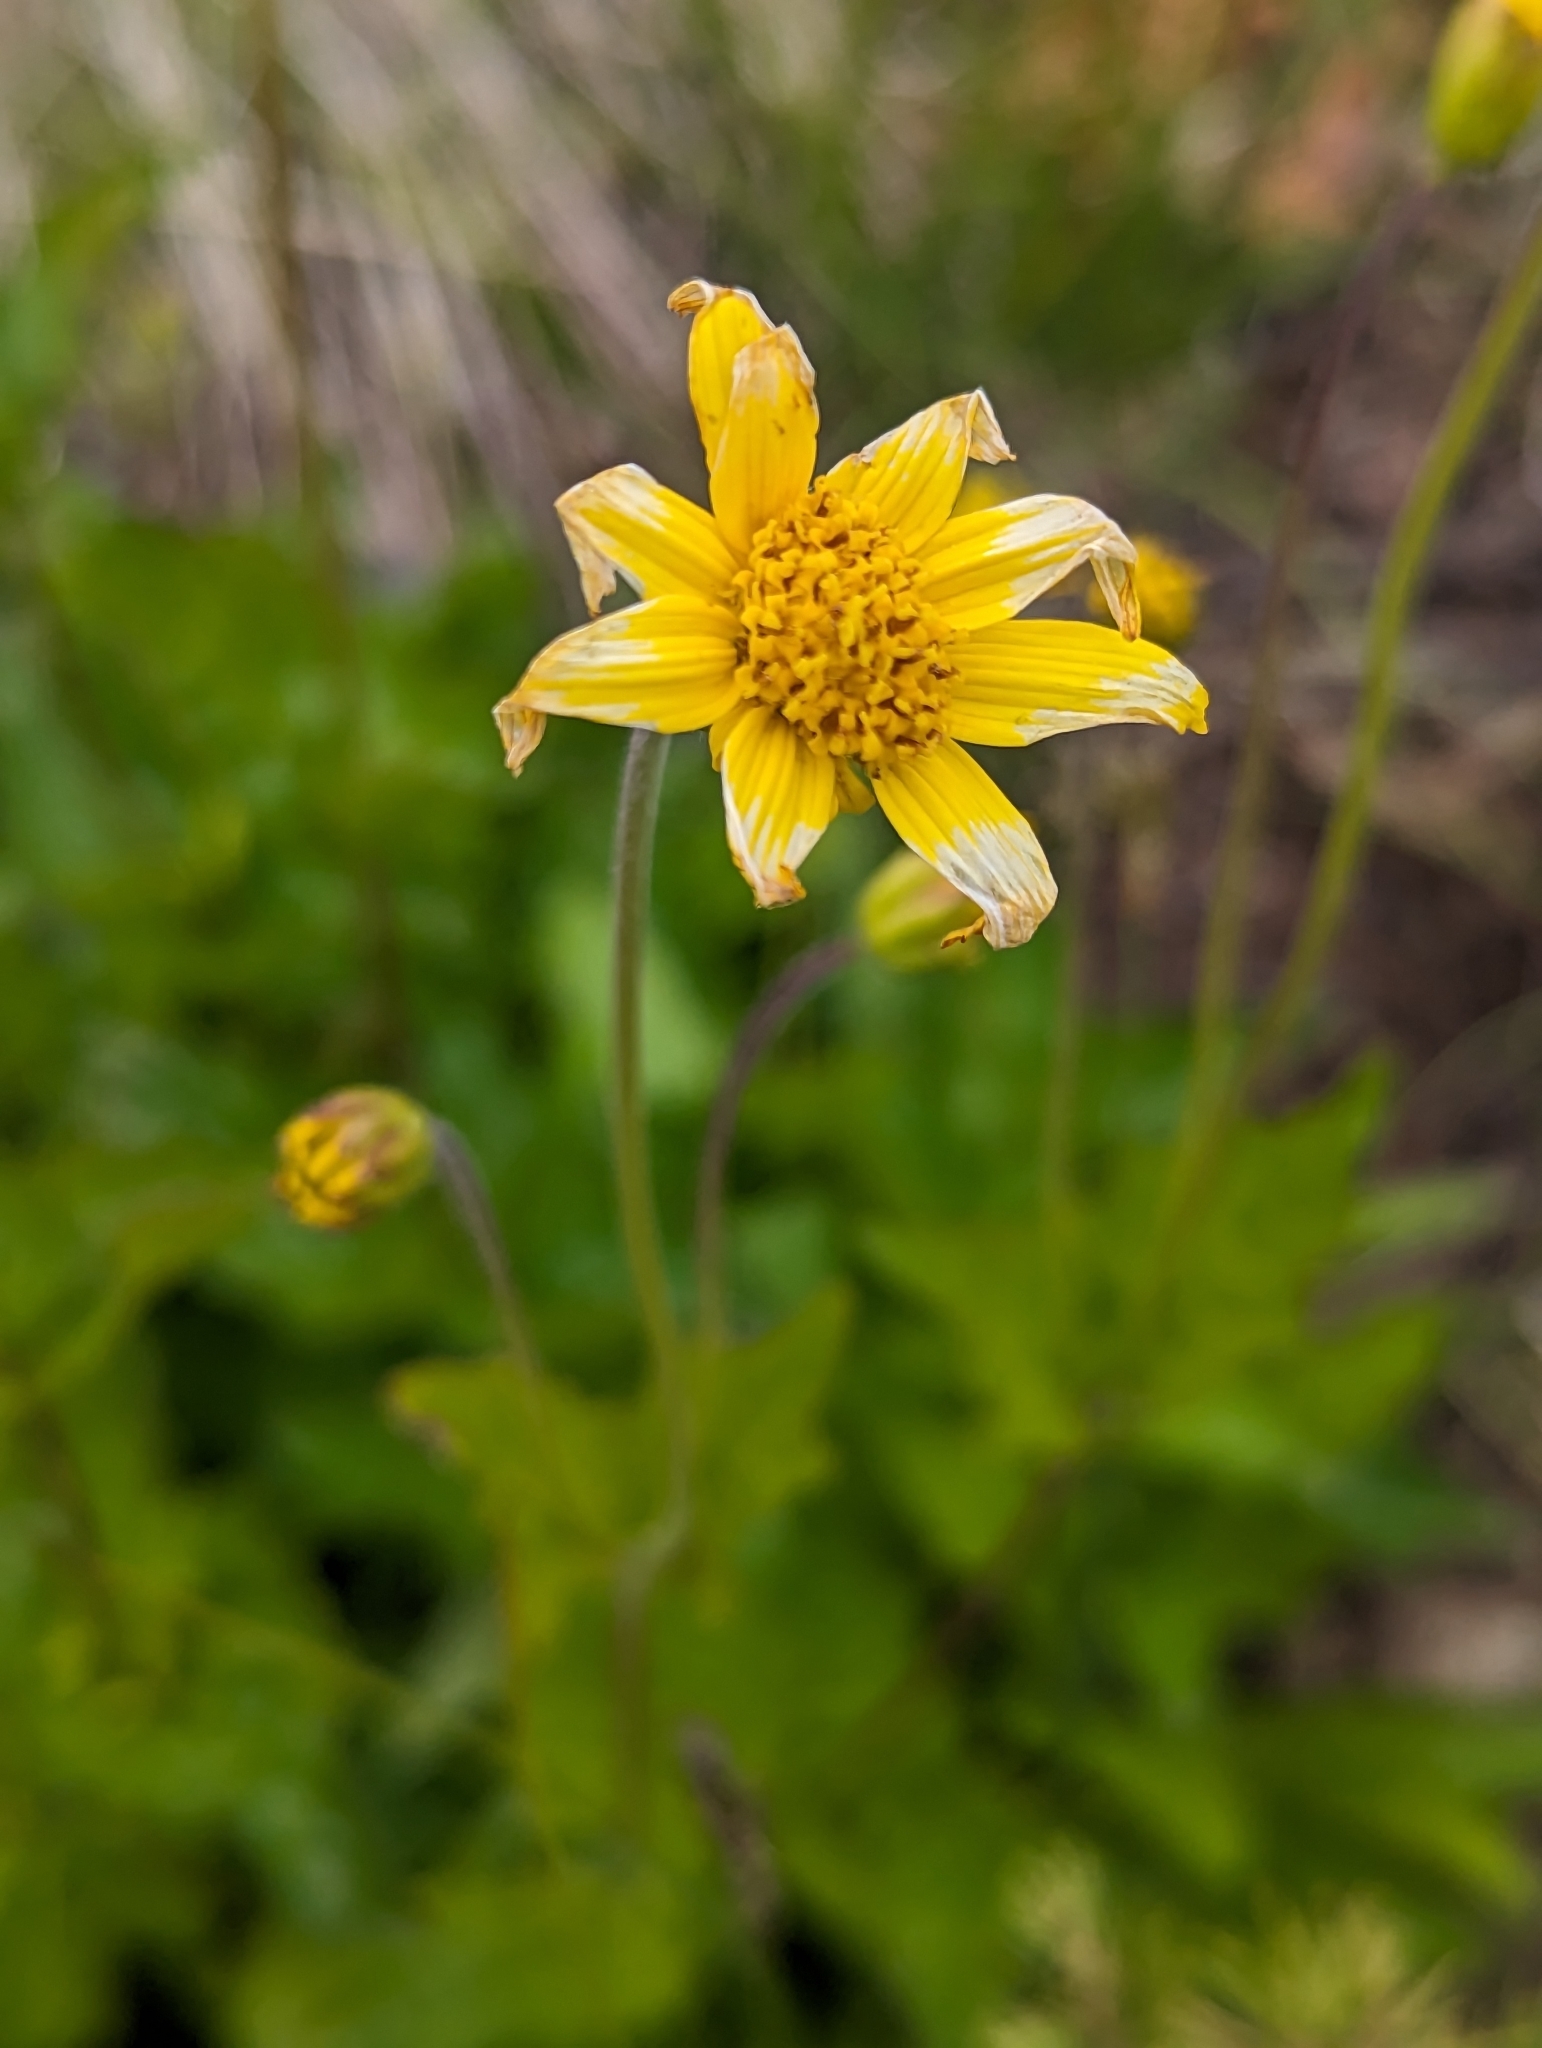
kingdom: Plantae
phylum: Tracheophyta
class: Magnoliopsida
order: Asterales
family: Asteraceae
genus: Arnica
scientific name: Arnica latifolia
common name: Arnica
